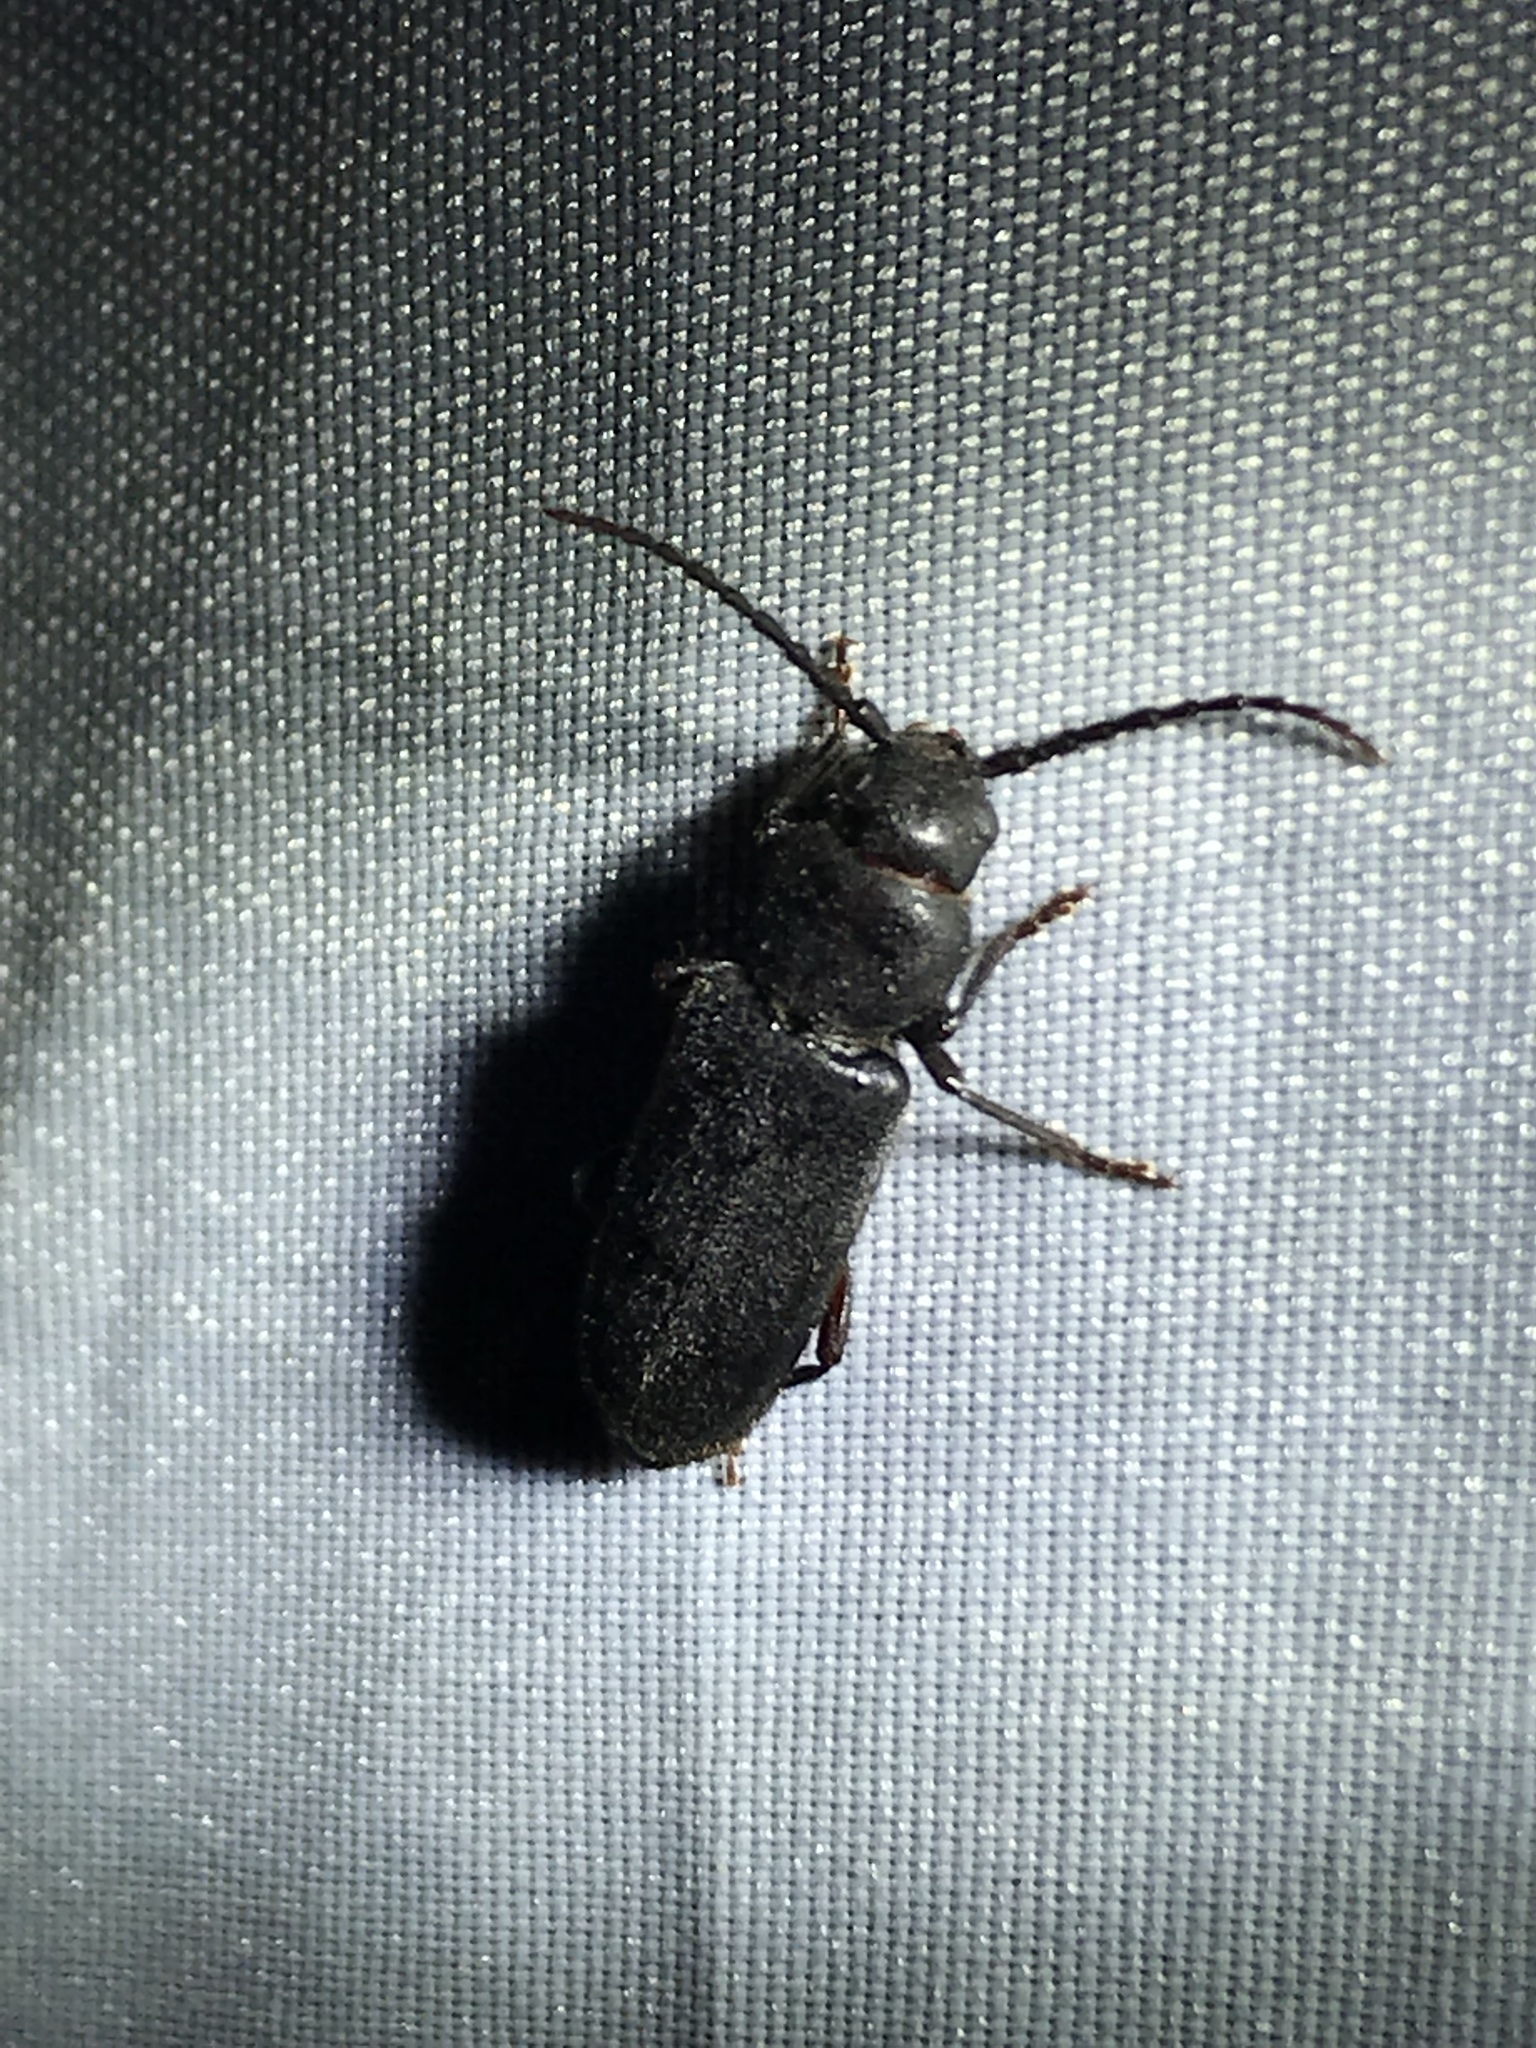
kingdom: Animalia
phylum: Arthropoda
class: Insecta
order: Coleoptera
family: Cerambycidae
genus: Asemum
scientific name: Asemum nitidum
